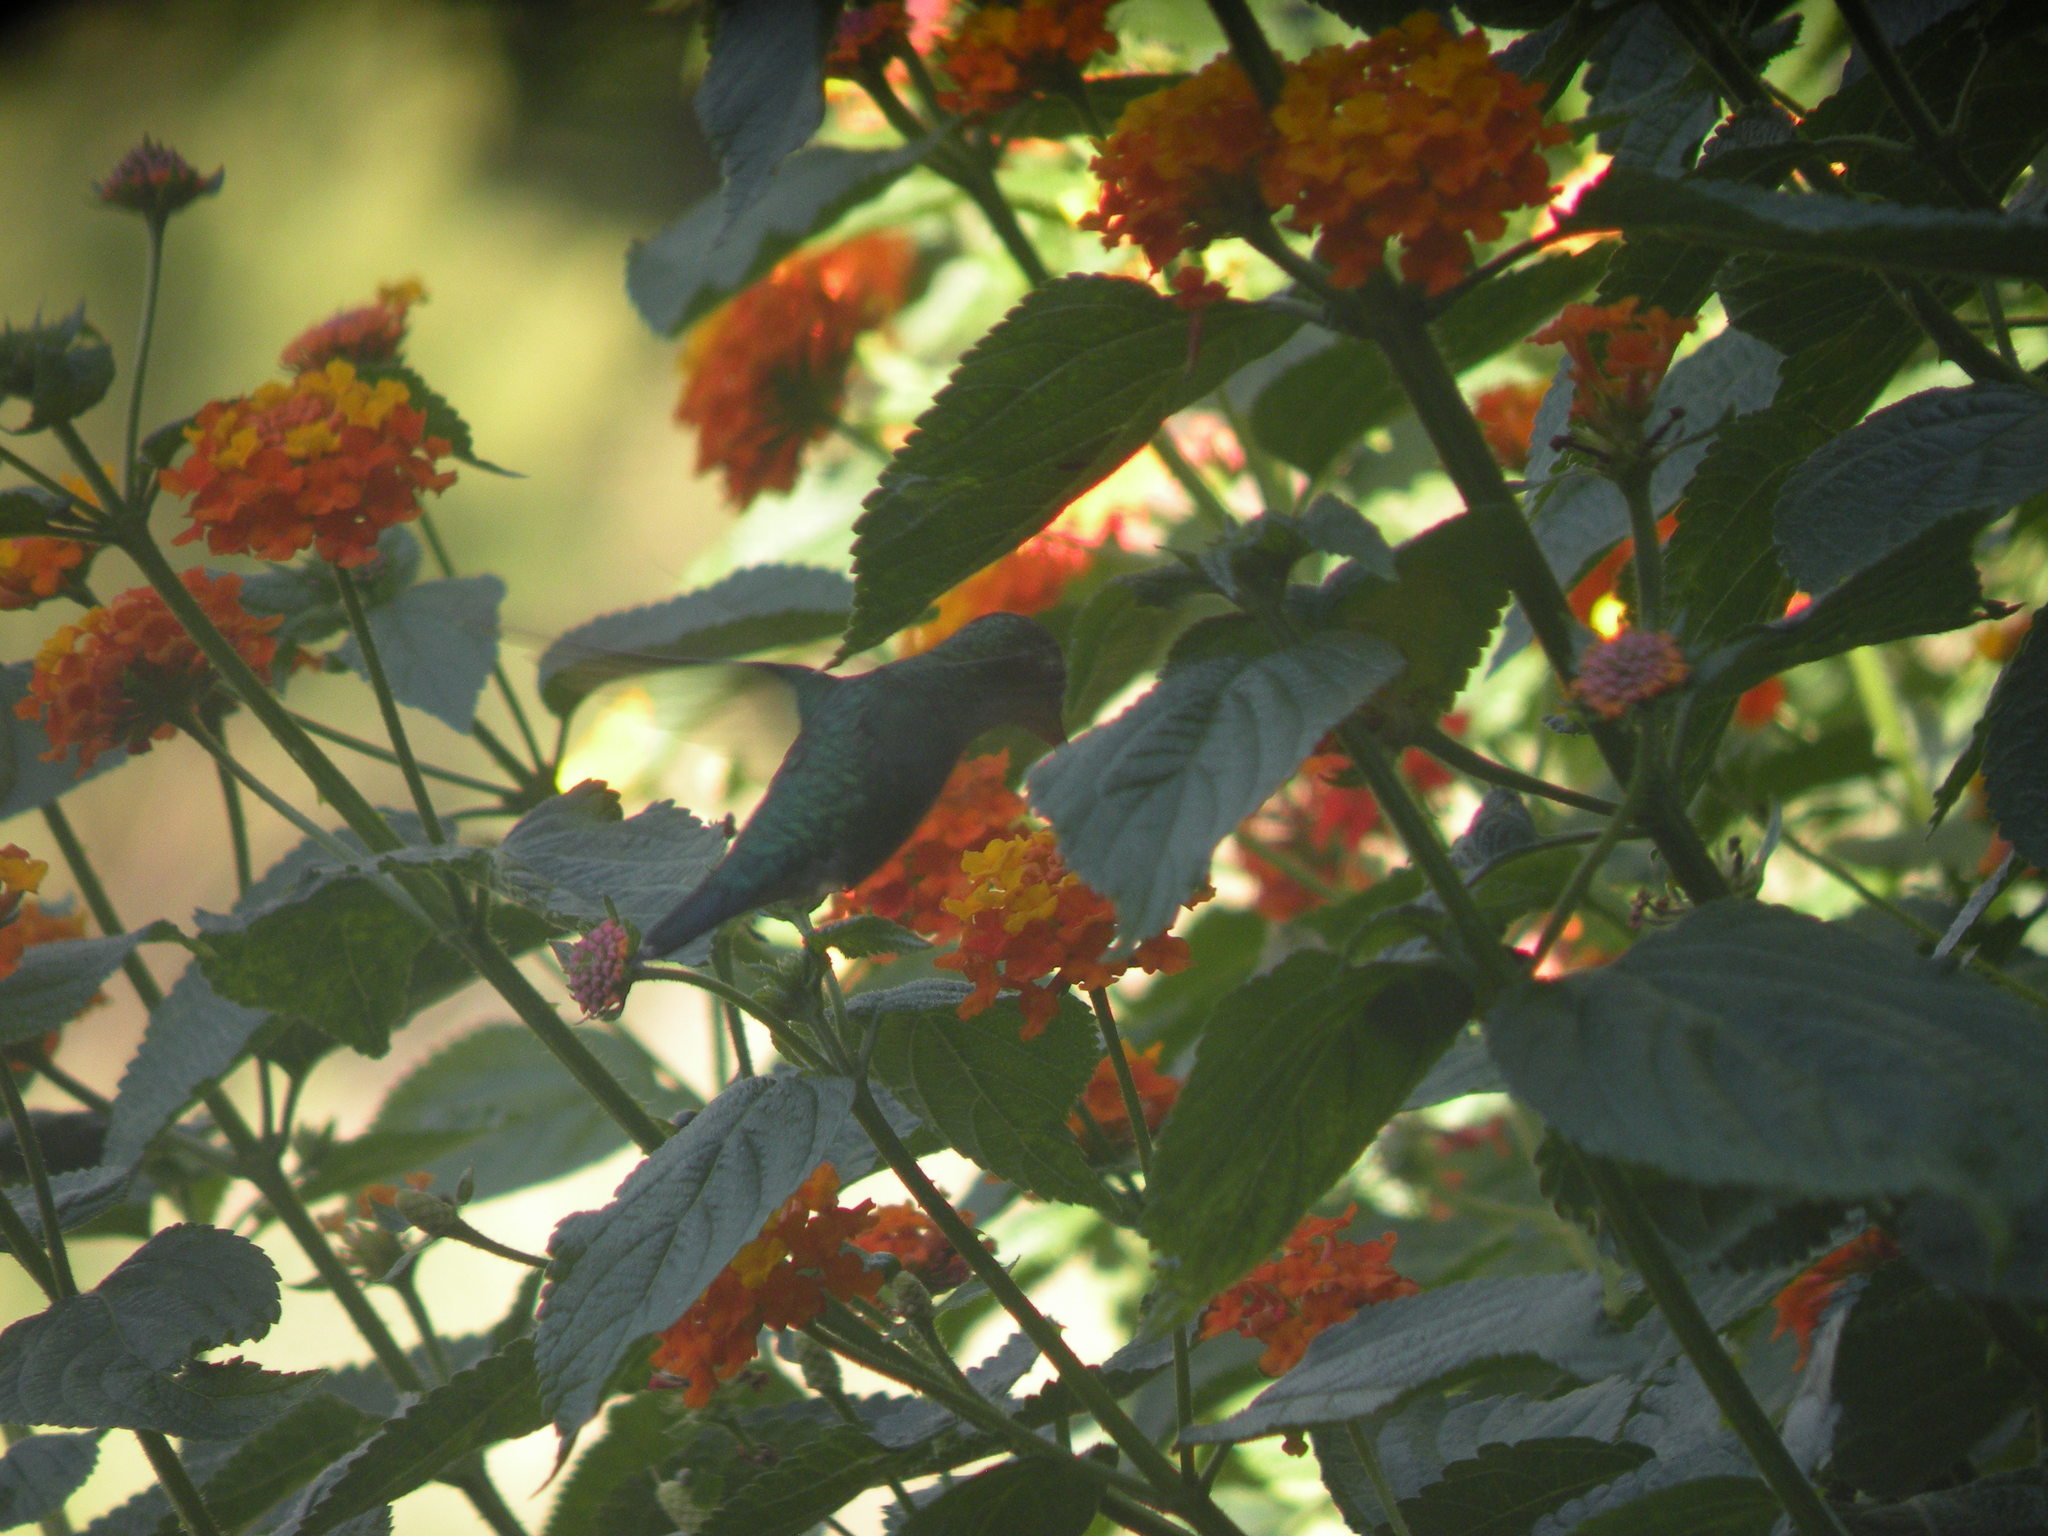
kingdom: Animalia
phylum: Chordata
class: Aves
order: Apodiformes
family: Trochilidae
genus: Chlorostilbon
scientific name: Chlorostilbon lucidus
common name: Glittering-bellied emerald
